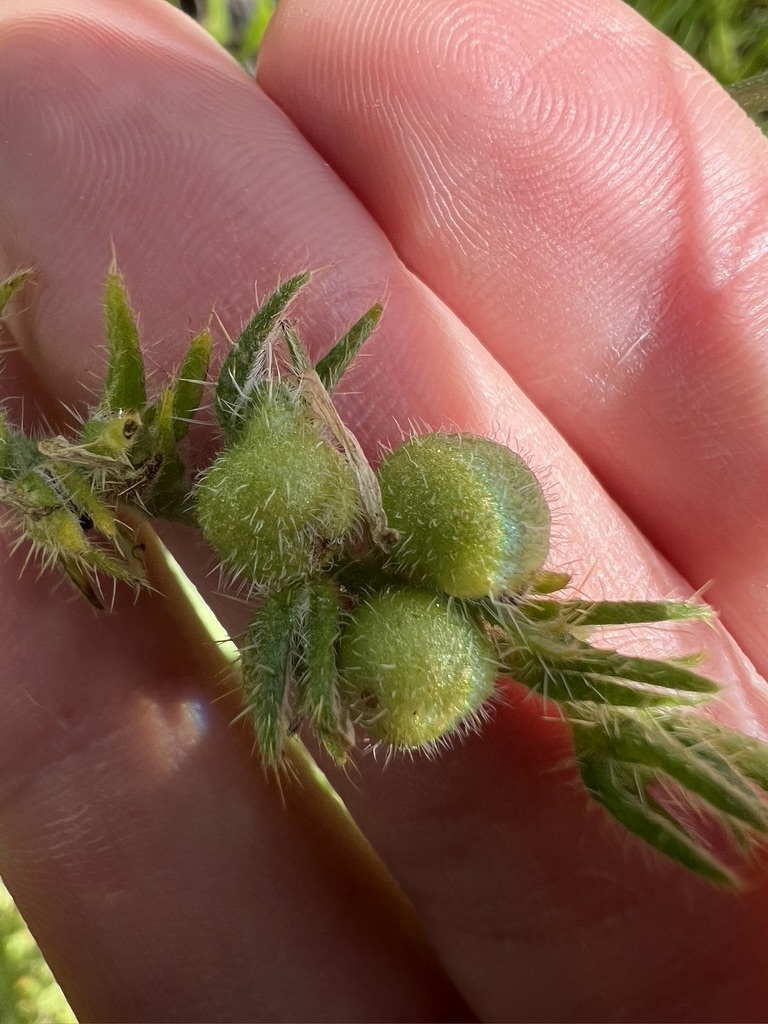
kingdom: Animalia
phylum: Arthropoda
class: Insecta
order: Diptera
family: Cecidomyiidae
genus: Schizomyia
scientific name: Schizomyia macrofila
